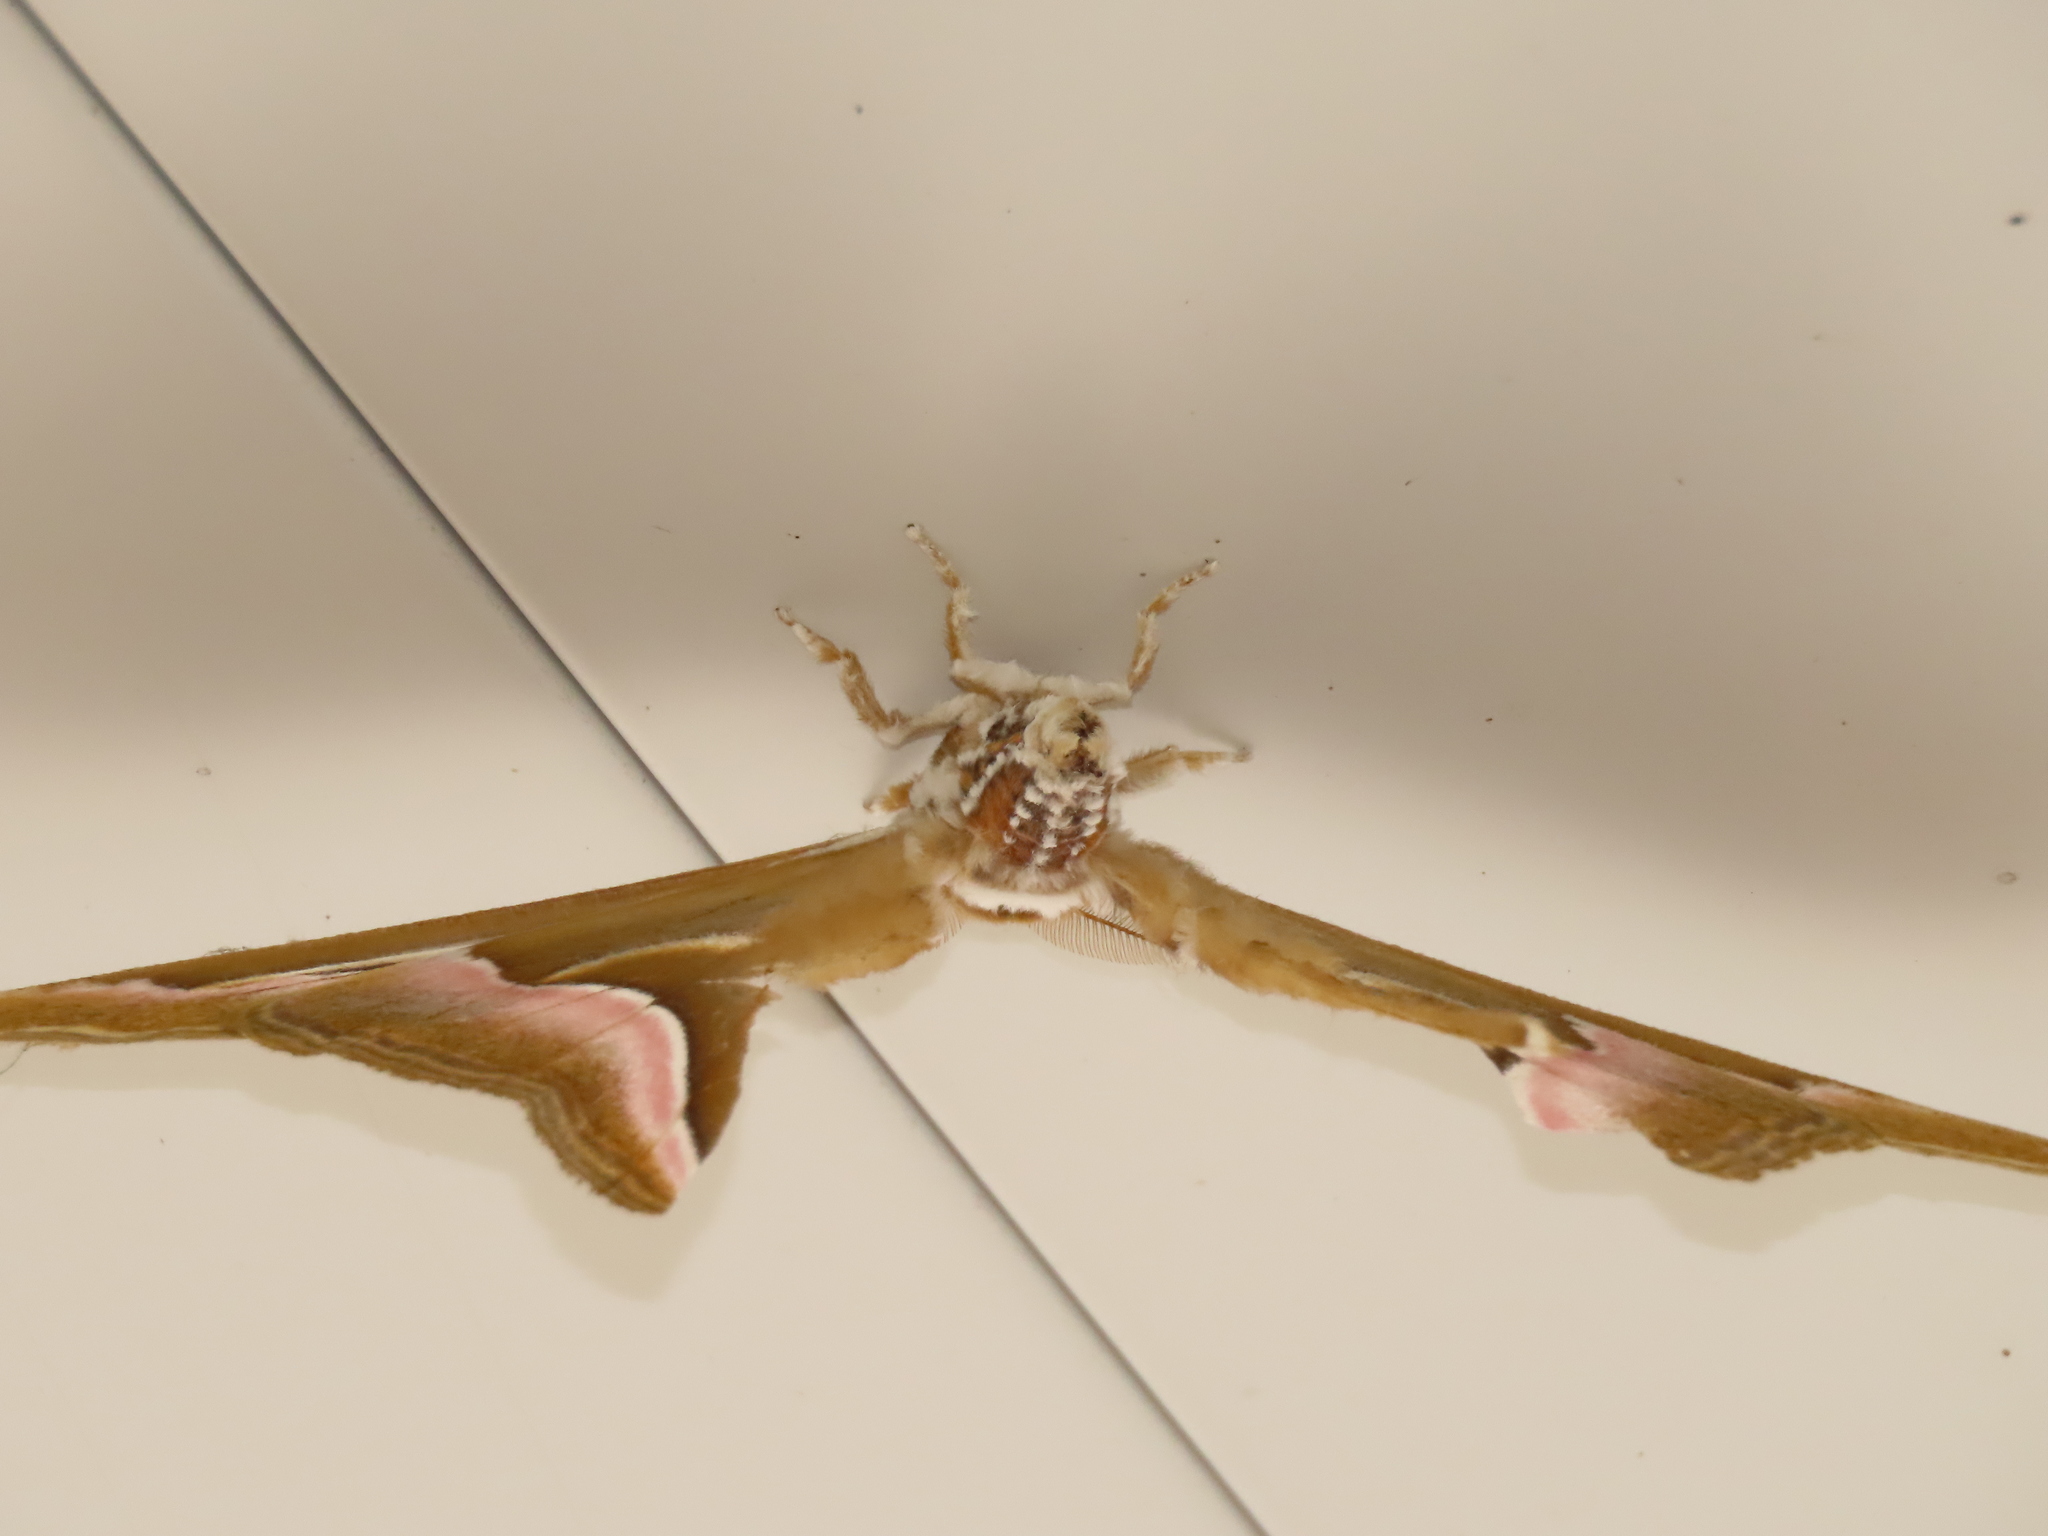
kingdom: Animalia
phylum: Arthropoda
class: Insecta
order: Lepidoptera
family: Saturniidae
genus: Samia
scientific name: Samia wangi
